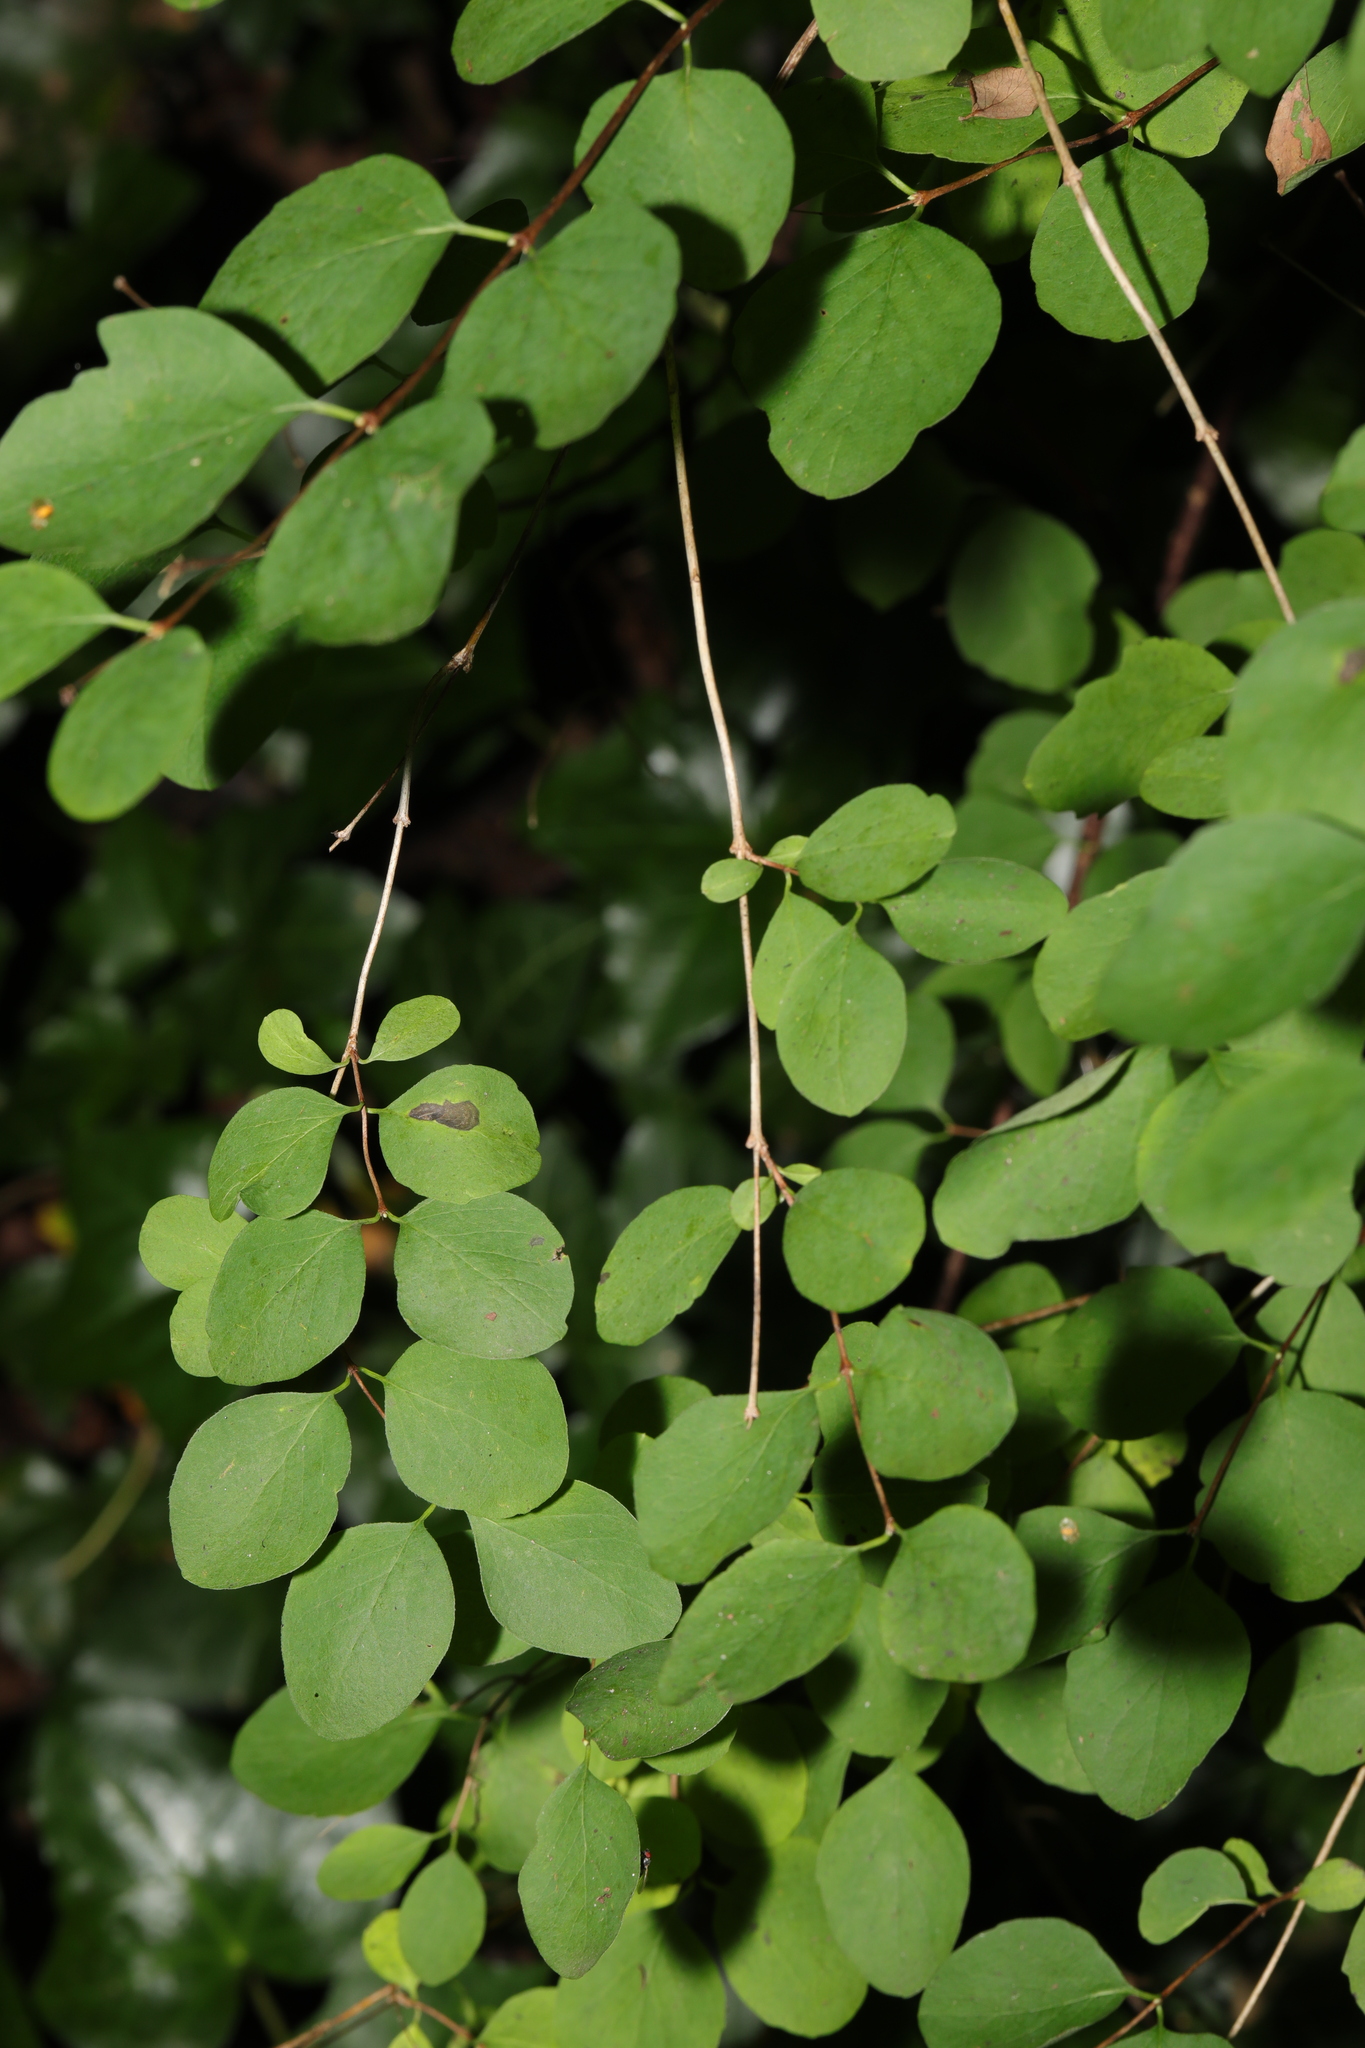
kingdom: Plantae
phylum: Tracheophyta
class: Magnoliopsida
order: Dipsacales
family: Caprifoliaceae
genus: Symphoricarpos
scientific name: Symphoricarpos albus
